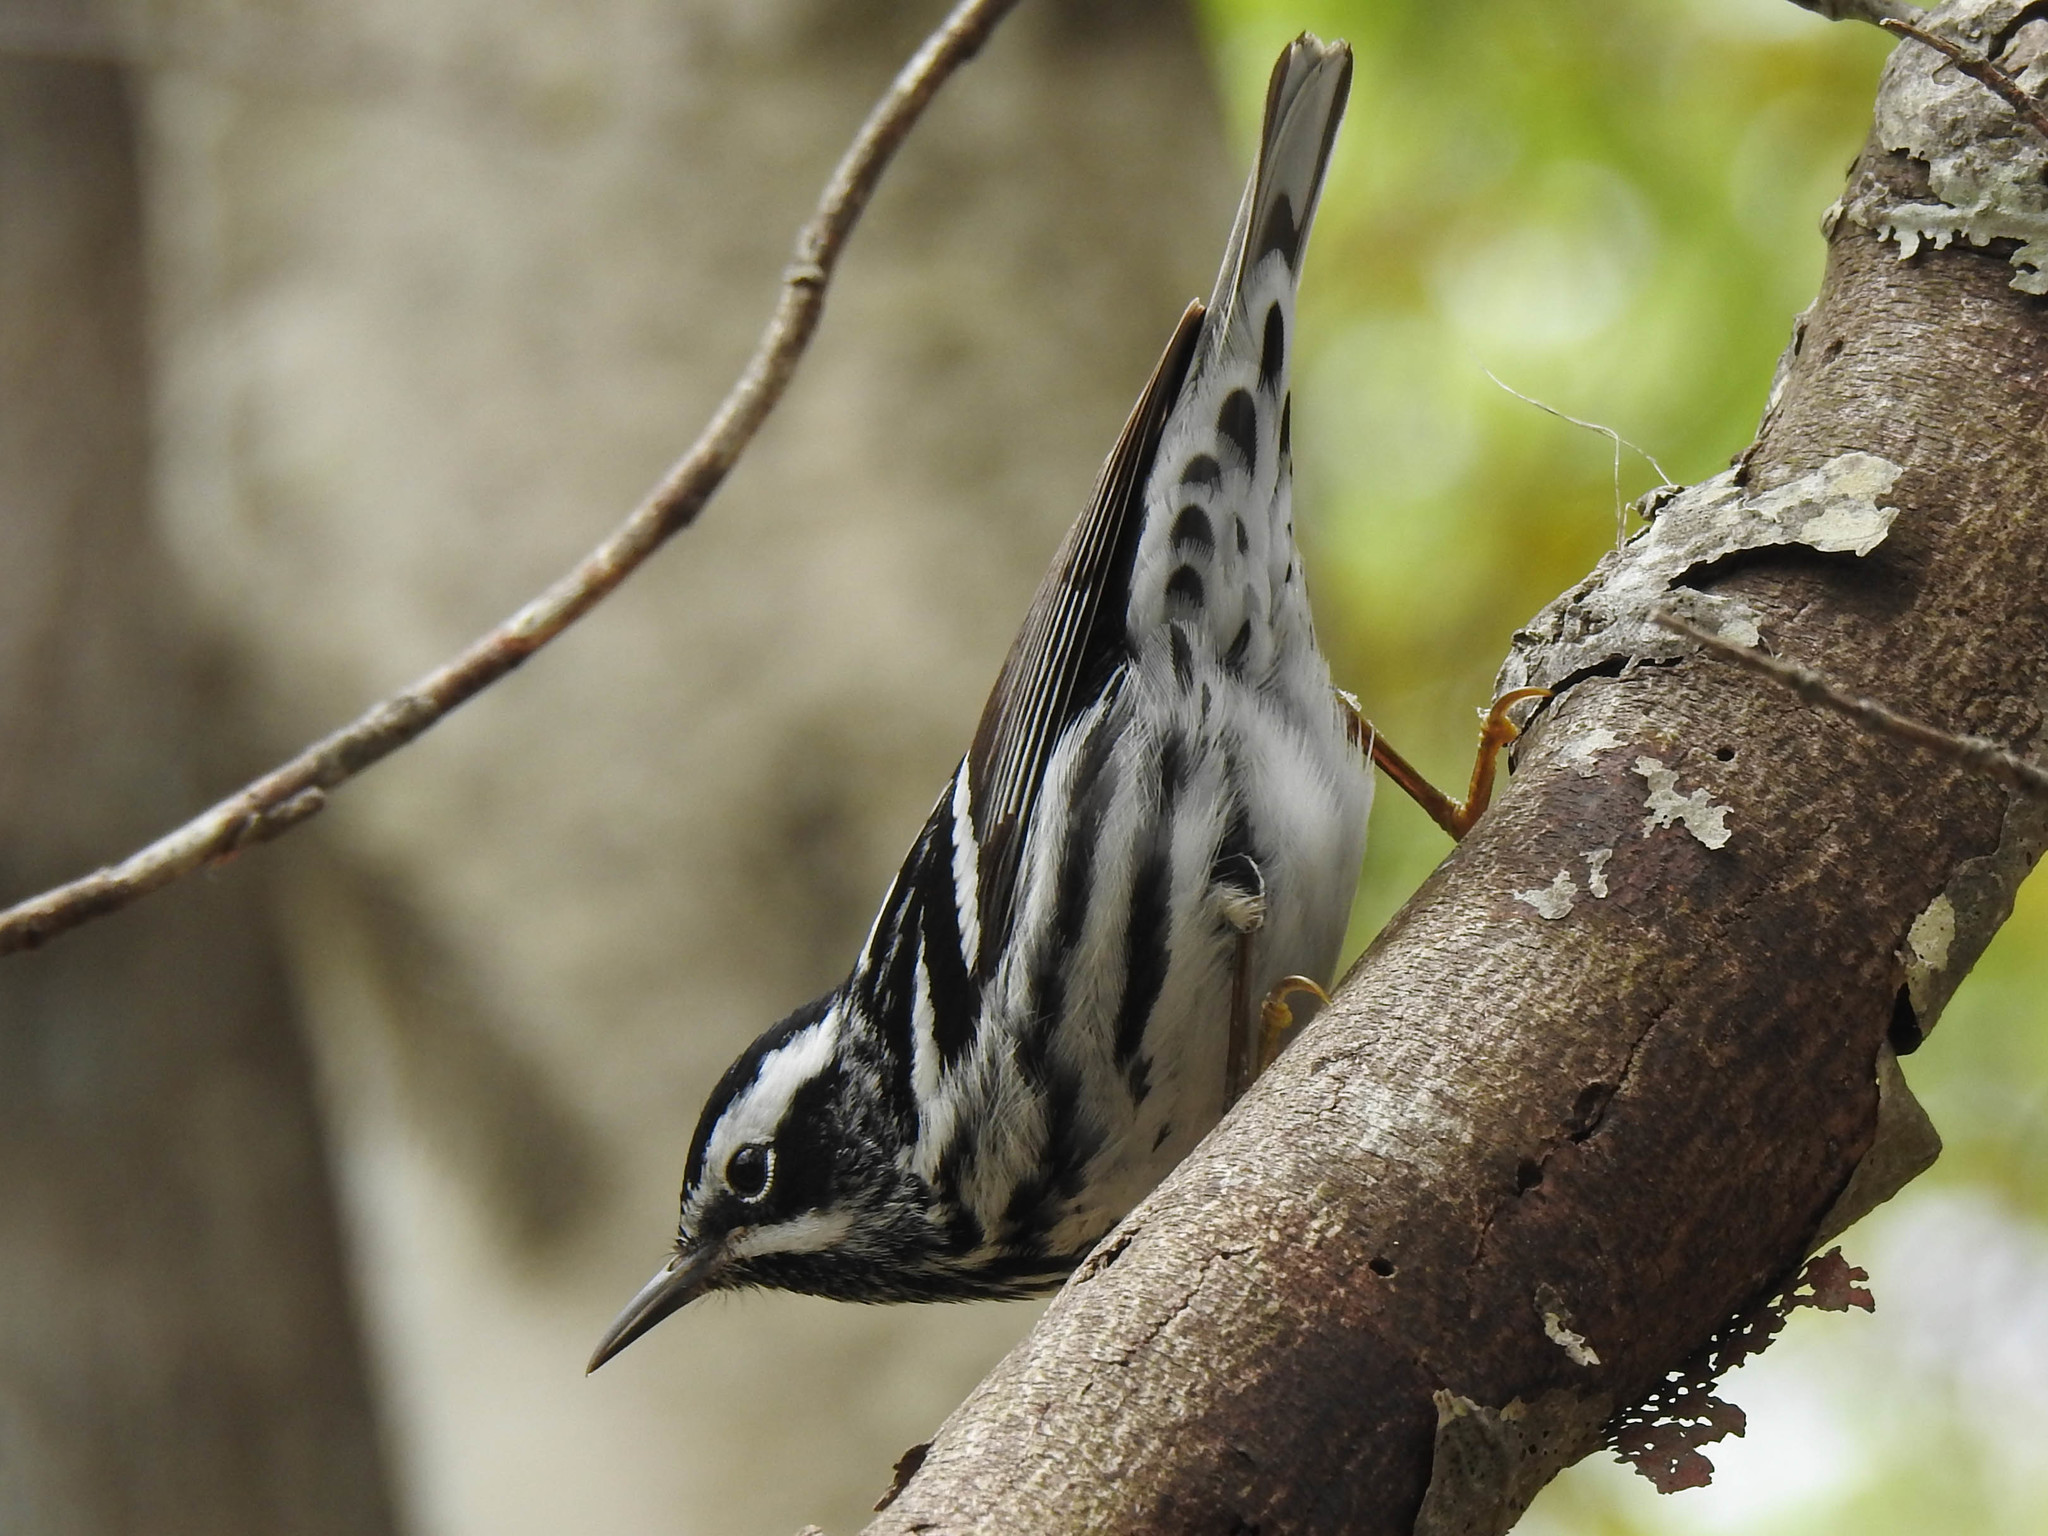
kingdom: Animalia
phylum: Chordata
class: Aves
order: Passeriformes
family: Parulidae
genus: Mniotilta
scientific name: Mniotilta varia
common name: Black-and-white warbler
